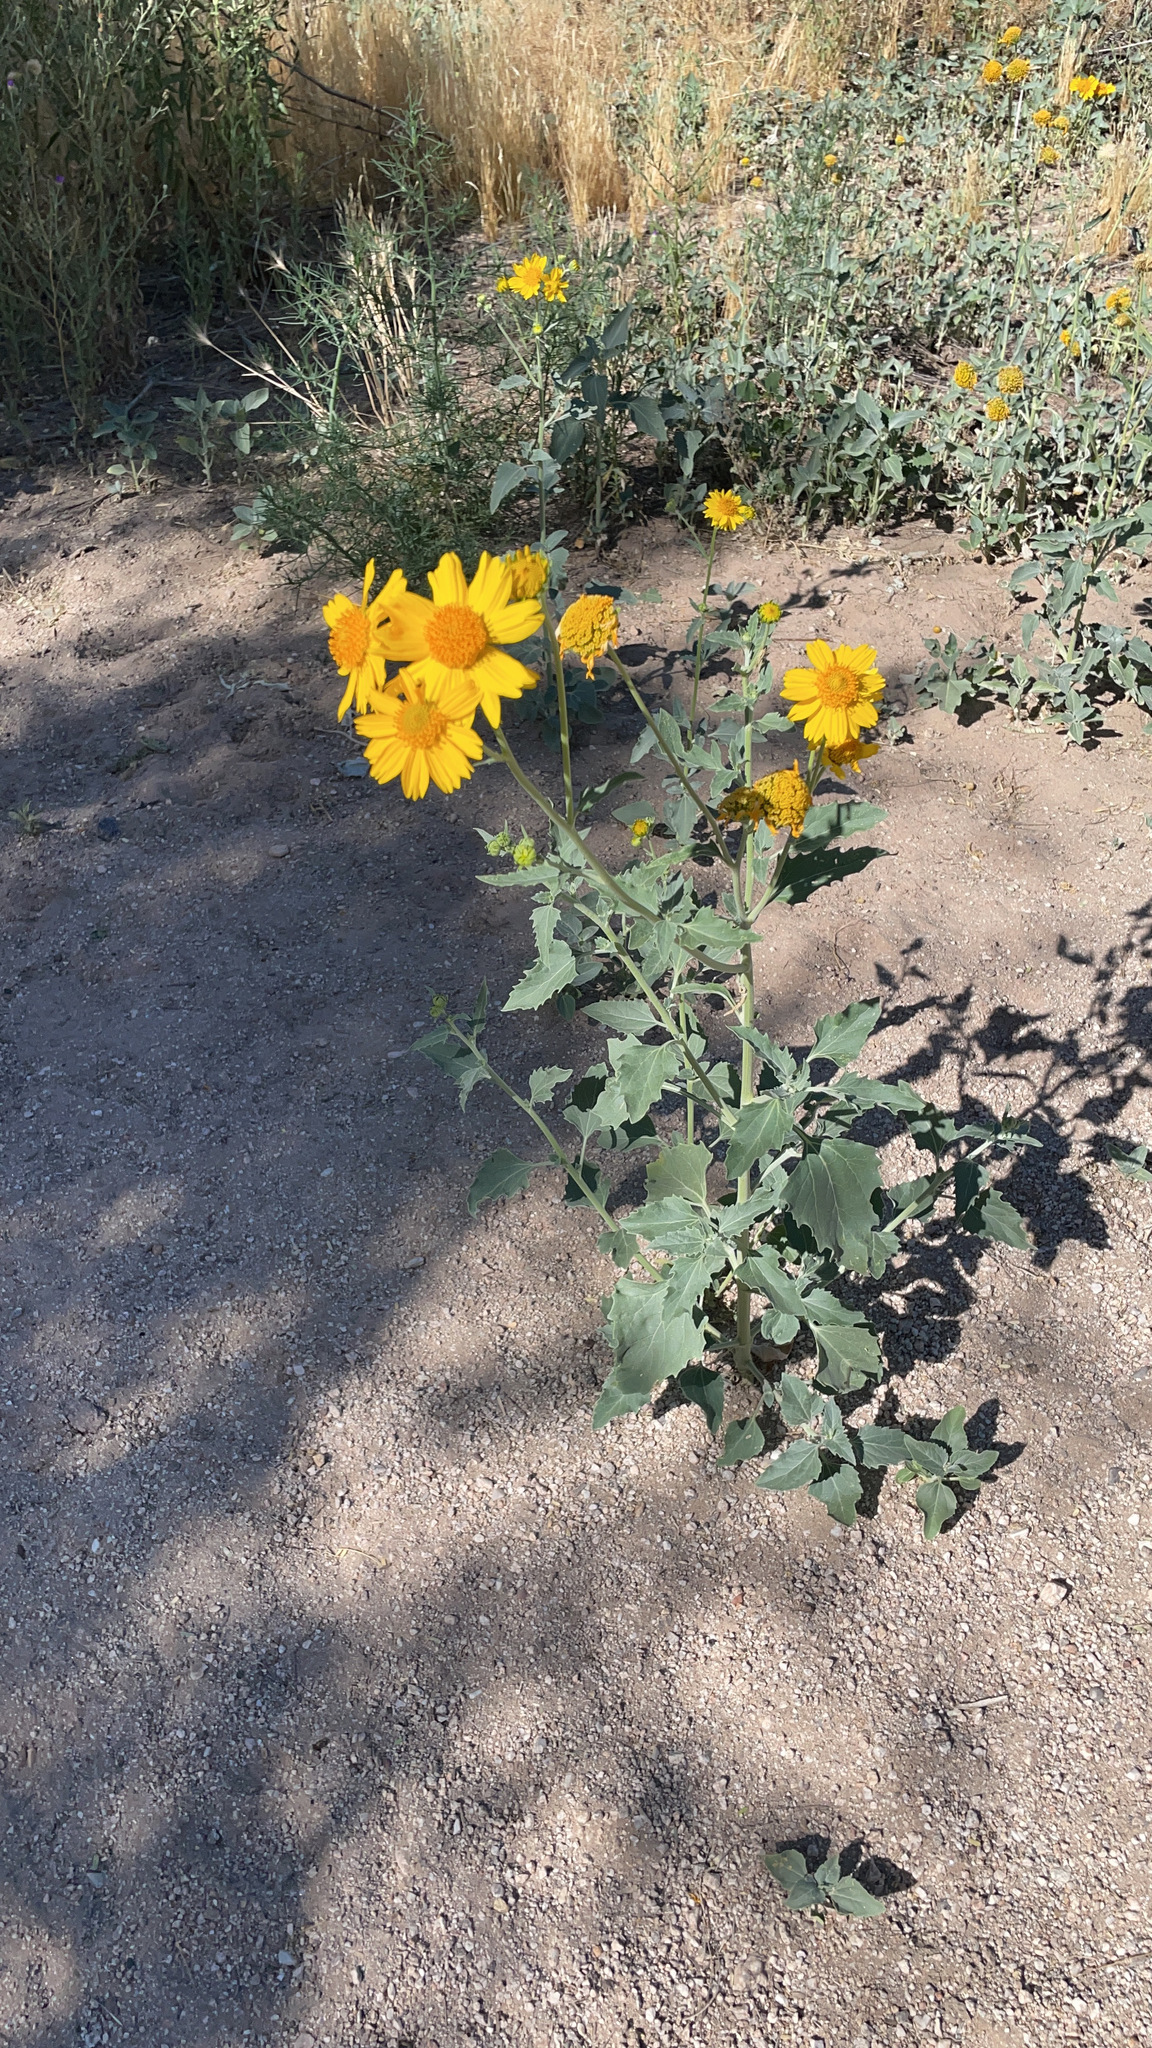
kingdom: Plantae
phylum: Tracheophyta
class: Magnoliopsida
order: Asterales
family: Asteraceae
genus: Verbesina
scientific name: Verbesina encelioides
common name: Golden crownbeard
